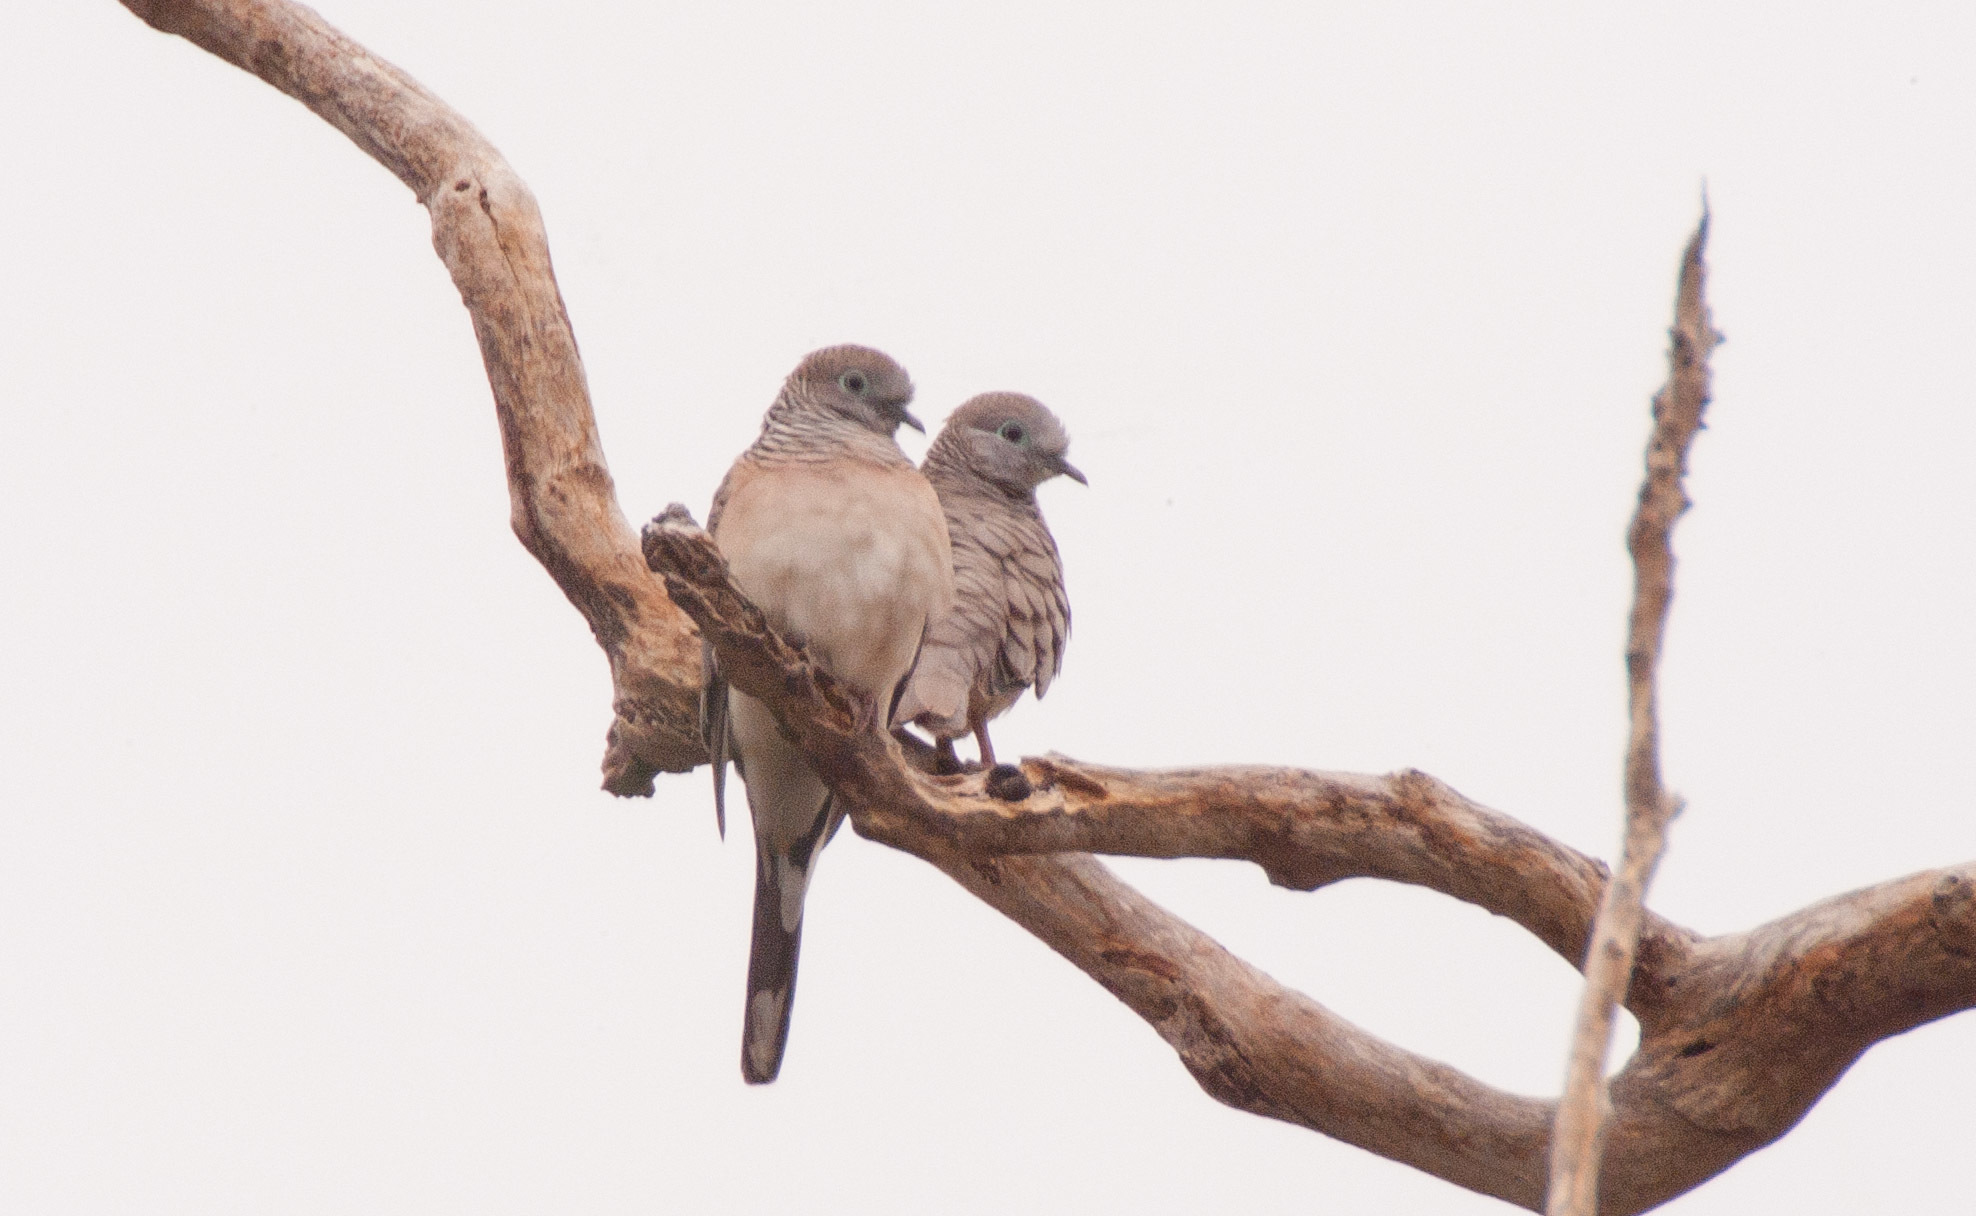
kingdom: Animalia
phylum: Chordata
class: Aves
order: Columbiformes
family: Columbidae
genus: Geopelia
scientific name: Geopelia placida
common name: Peaceful dove
